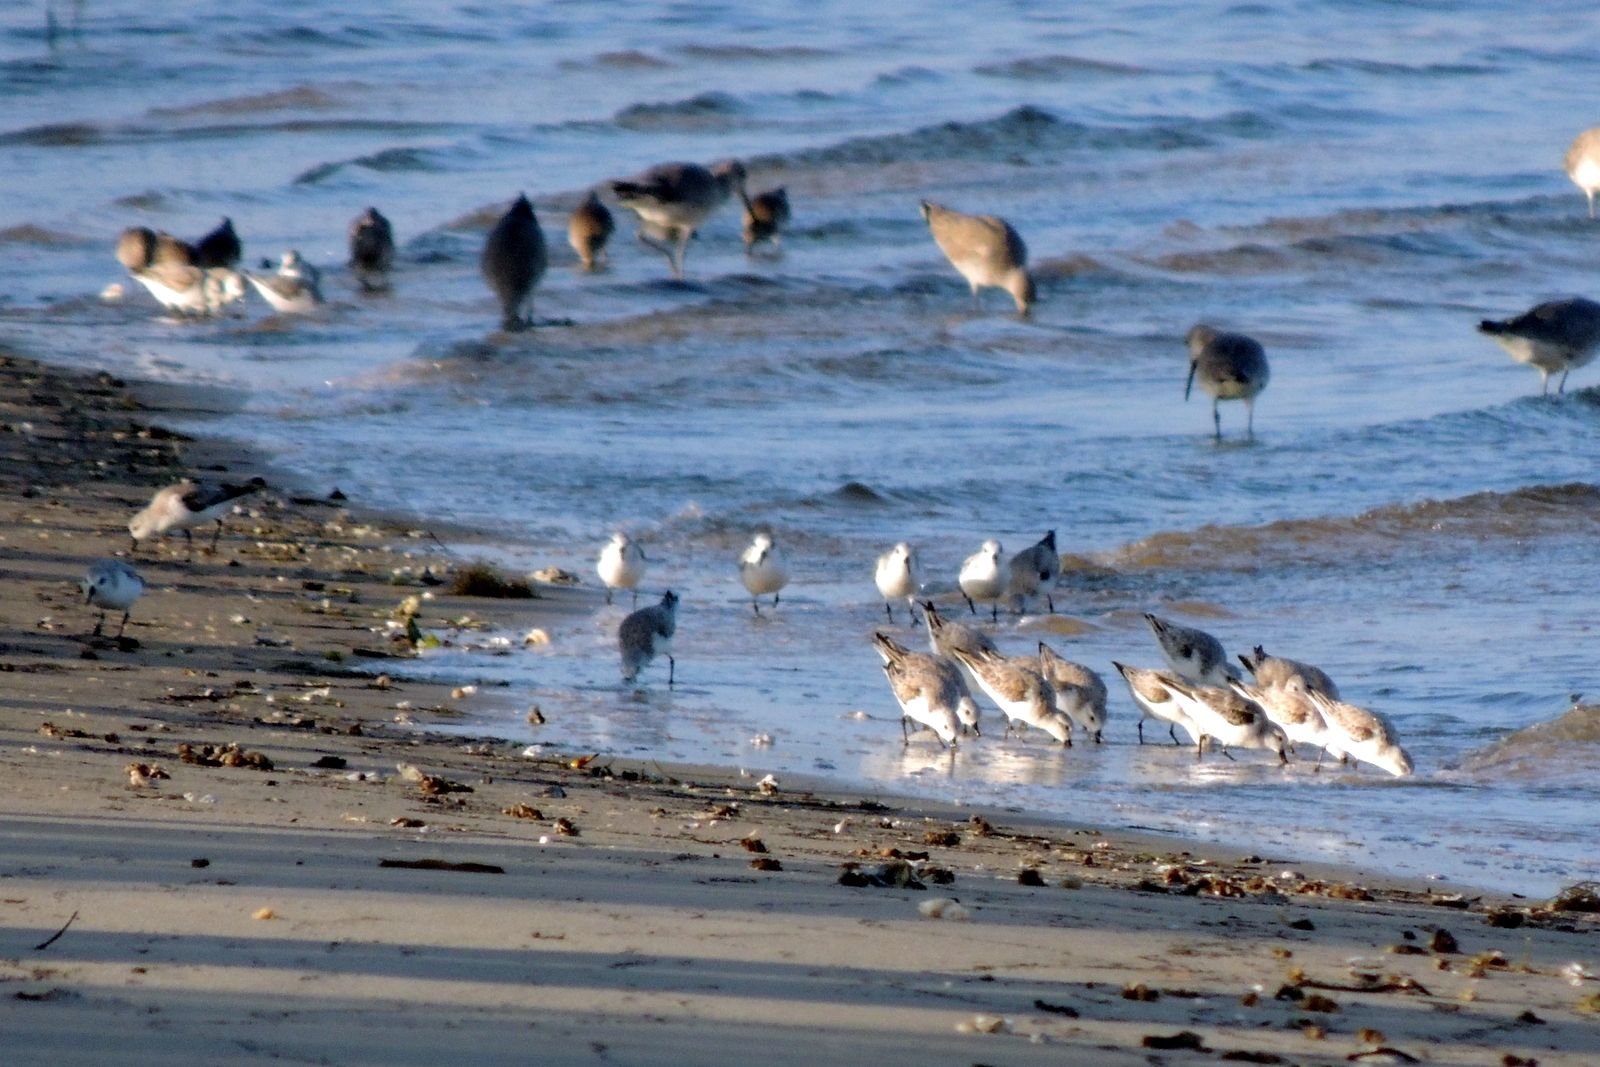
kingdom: Animalia
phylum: Chordata
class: Aves
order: Charadriiformes
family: Scolopacidae
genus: Calidris
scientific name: Calidris alba
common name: Sanderling
